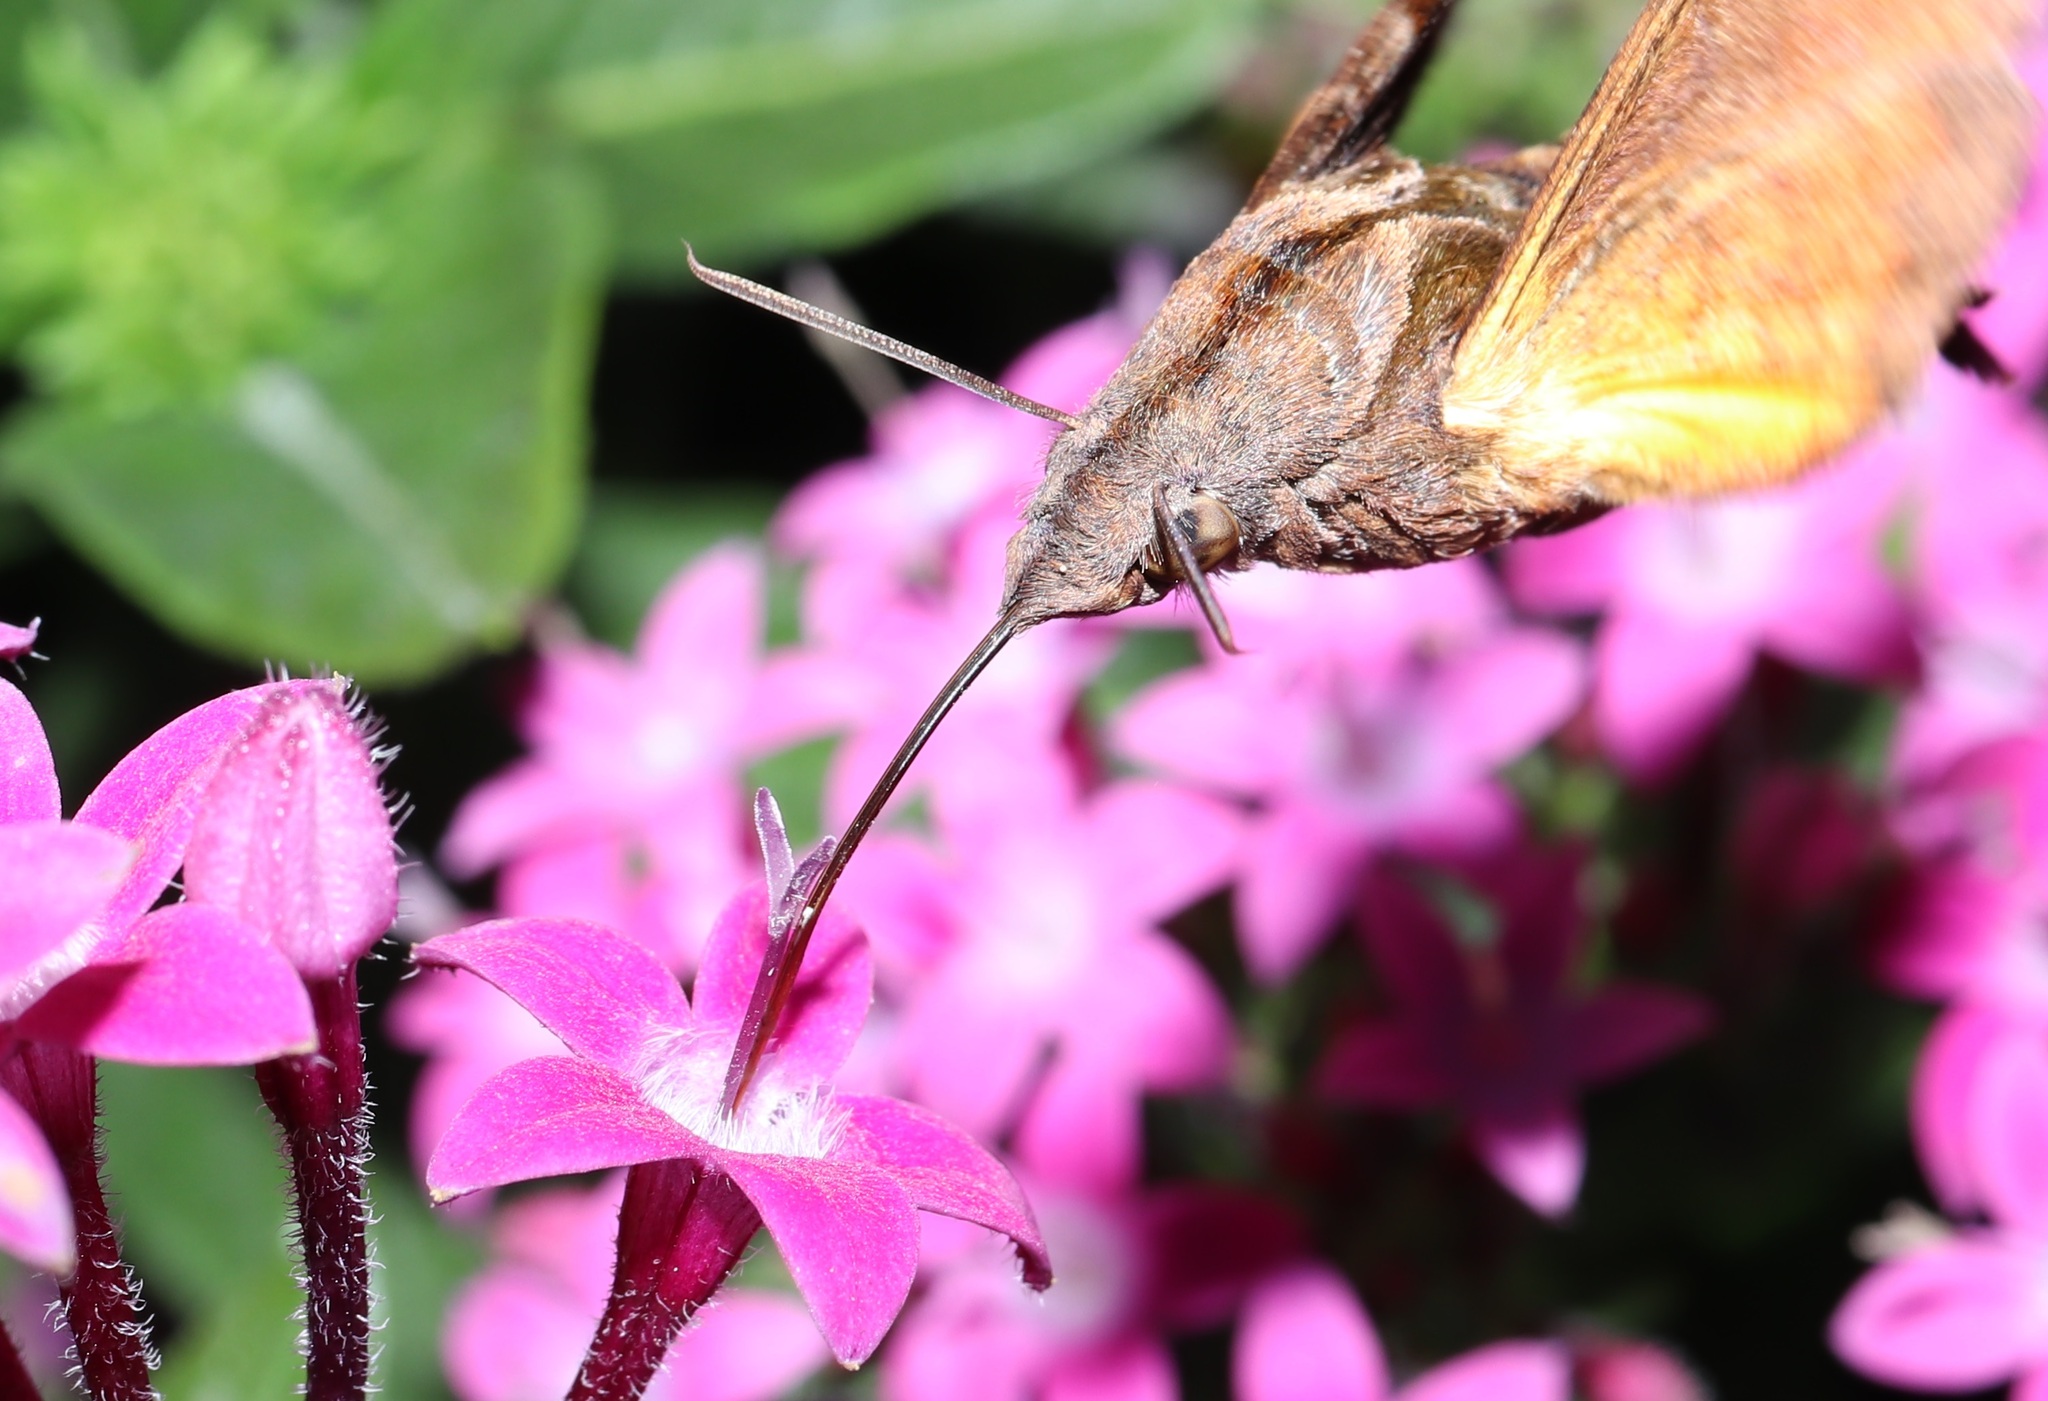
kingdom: Animalia
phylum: Arthropoda
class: Insecta
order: Lepidoptera
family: Sphingidae
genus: Macroglossum
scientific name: Macroglossum pyrrhosticta
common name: Hummingbird hawk moth
